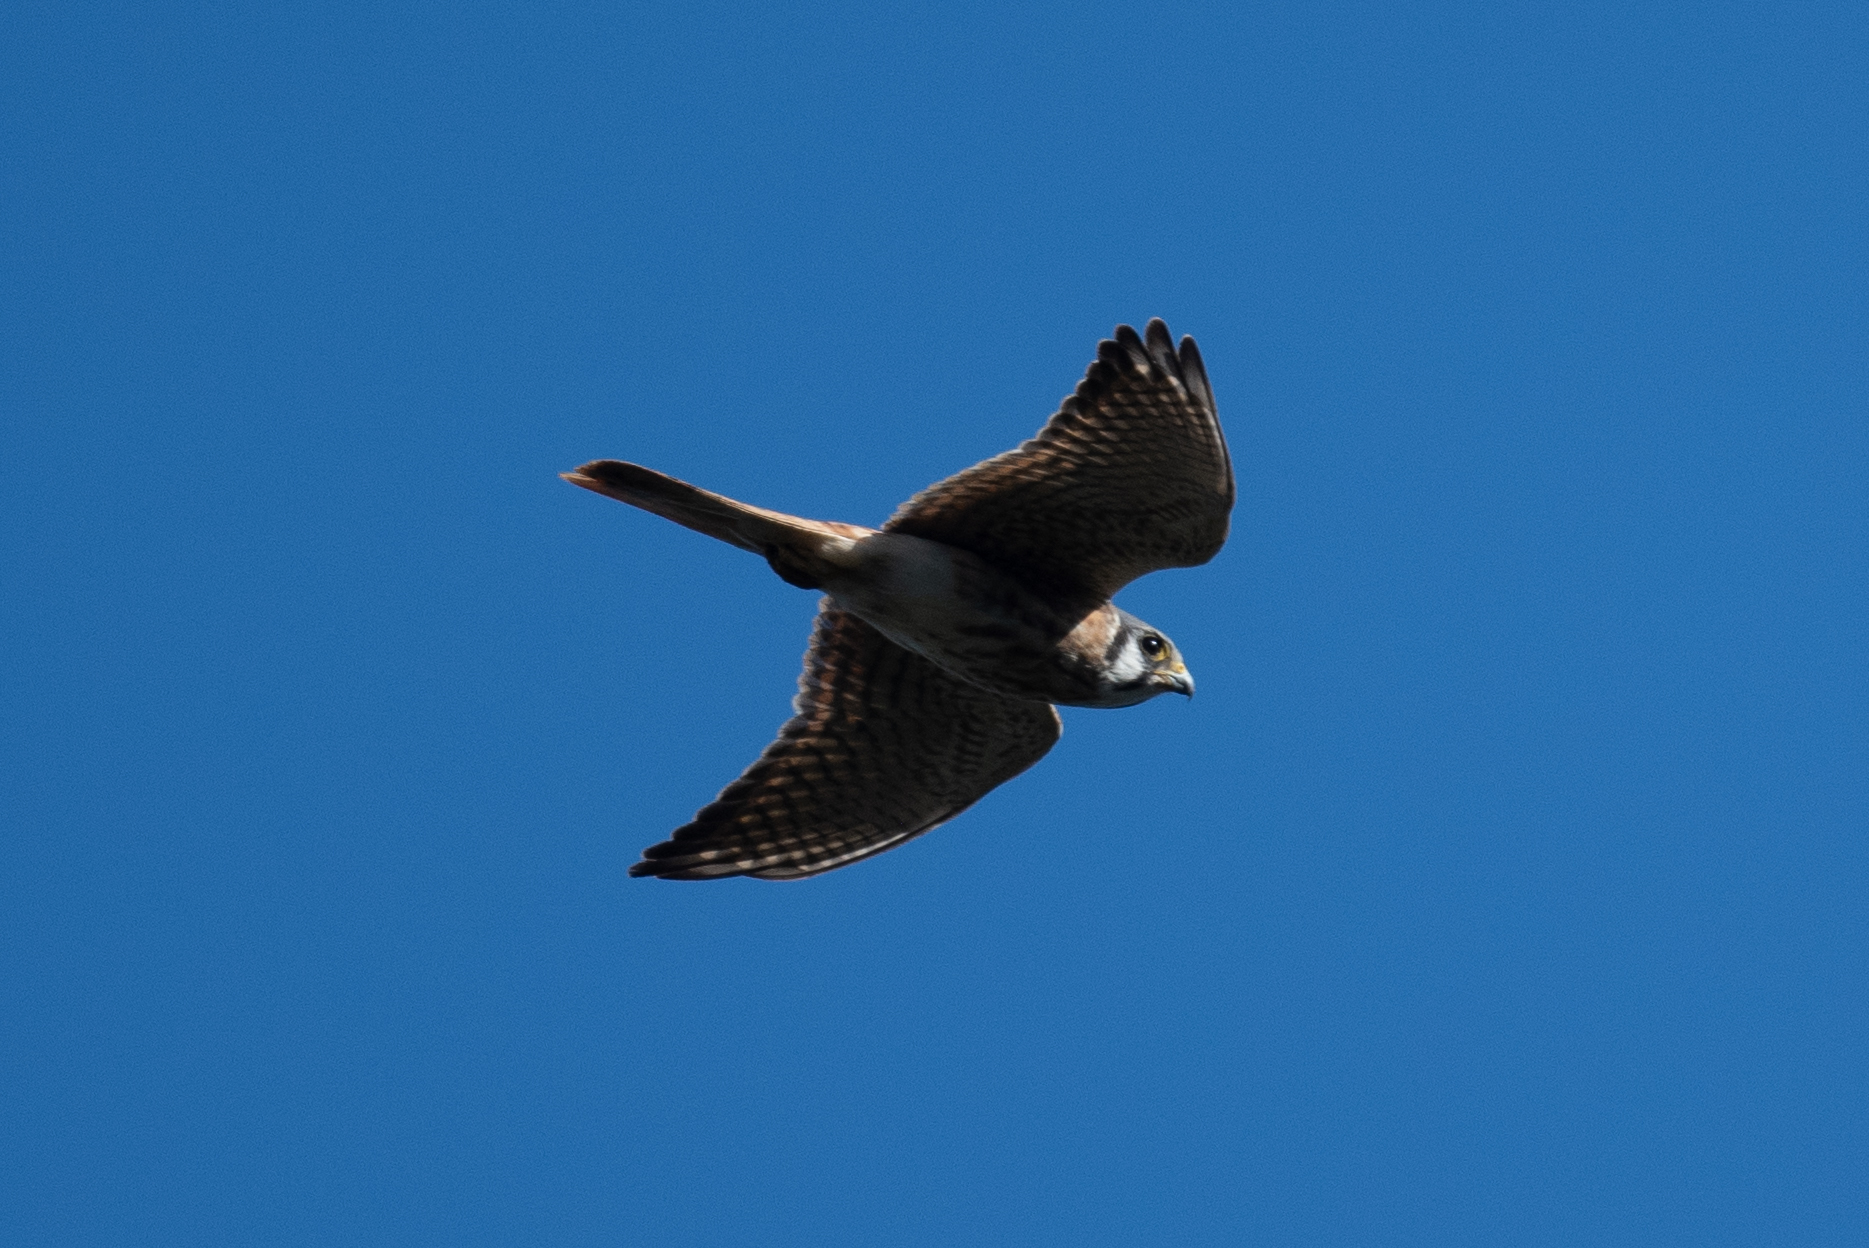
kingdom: Animalia
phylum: Chordata
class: Aves
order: Falconiformes
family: Falconidae
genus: Falco
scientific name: Falco sparverius
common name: American kestrel
